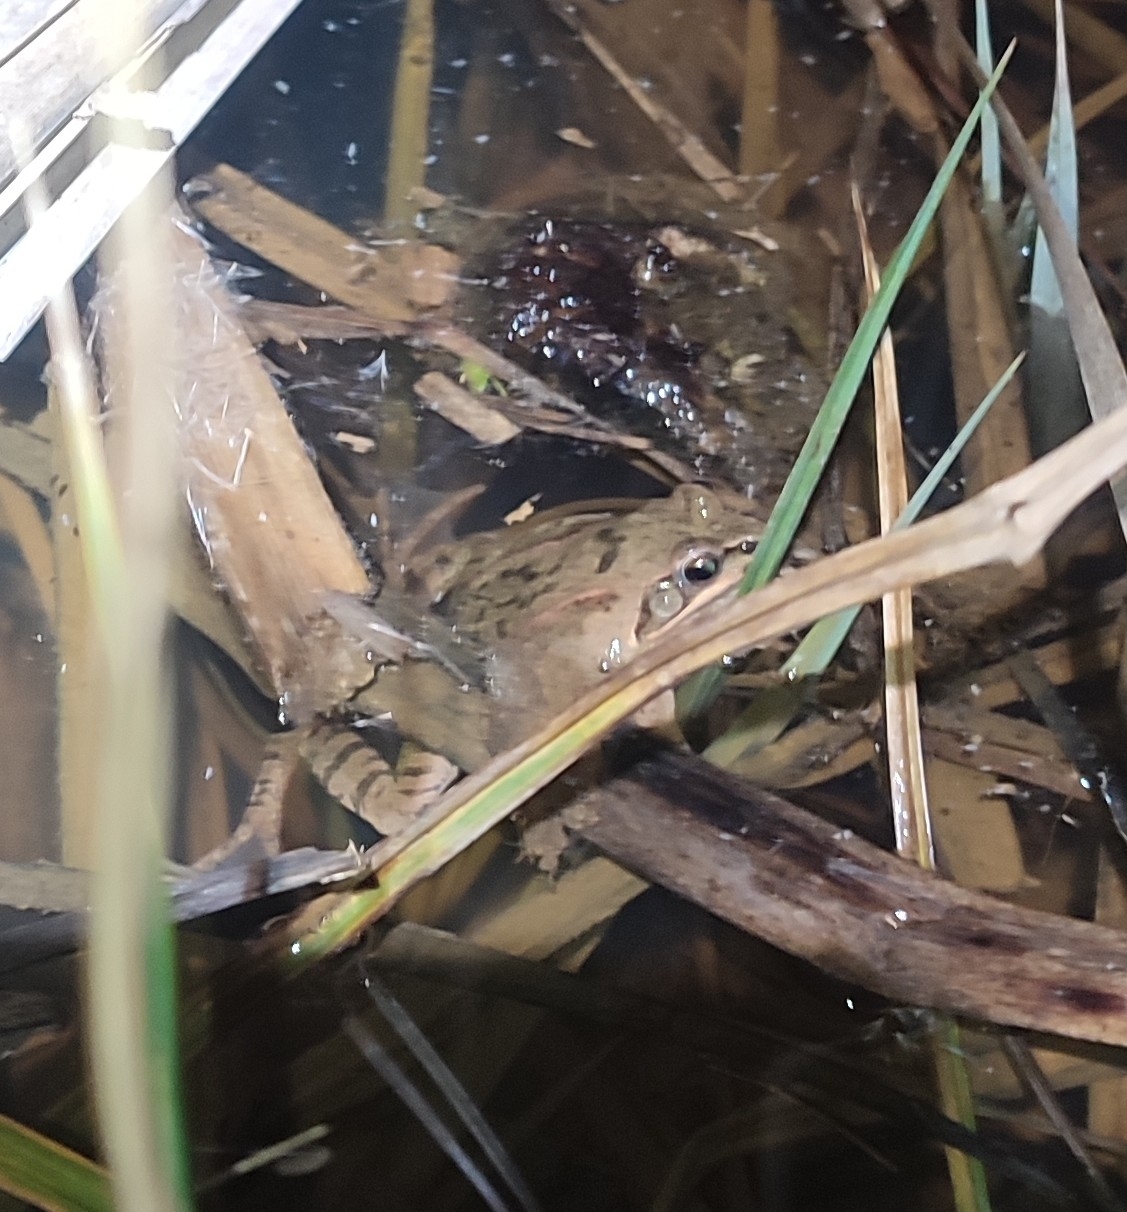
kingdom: Animalia
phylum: Chordata
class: Amphibia
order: Anura
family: Ranidae
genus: Rana
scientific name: Rana dalmatina
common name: Agile frog
